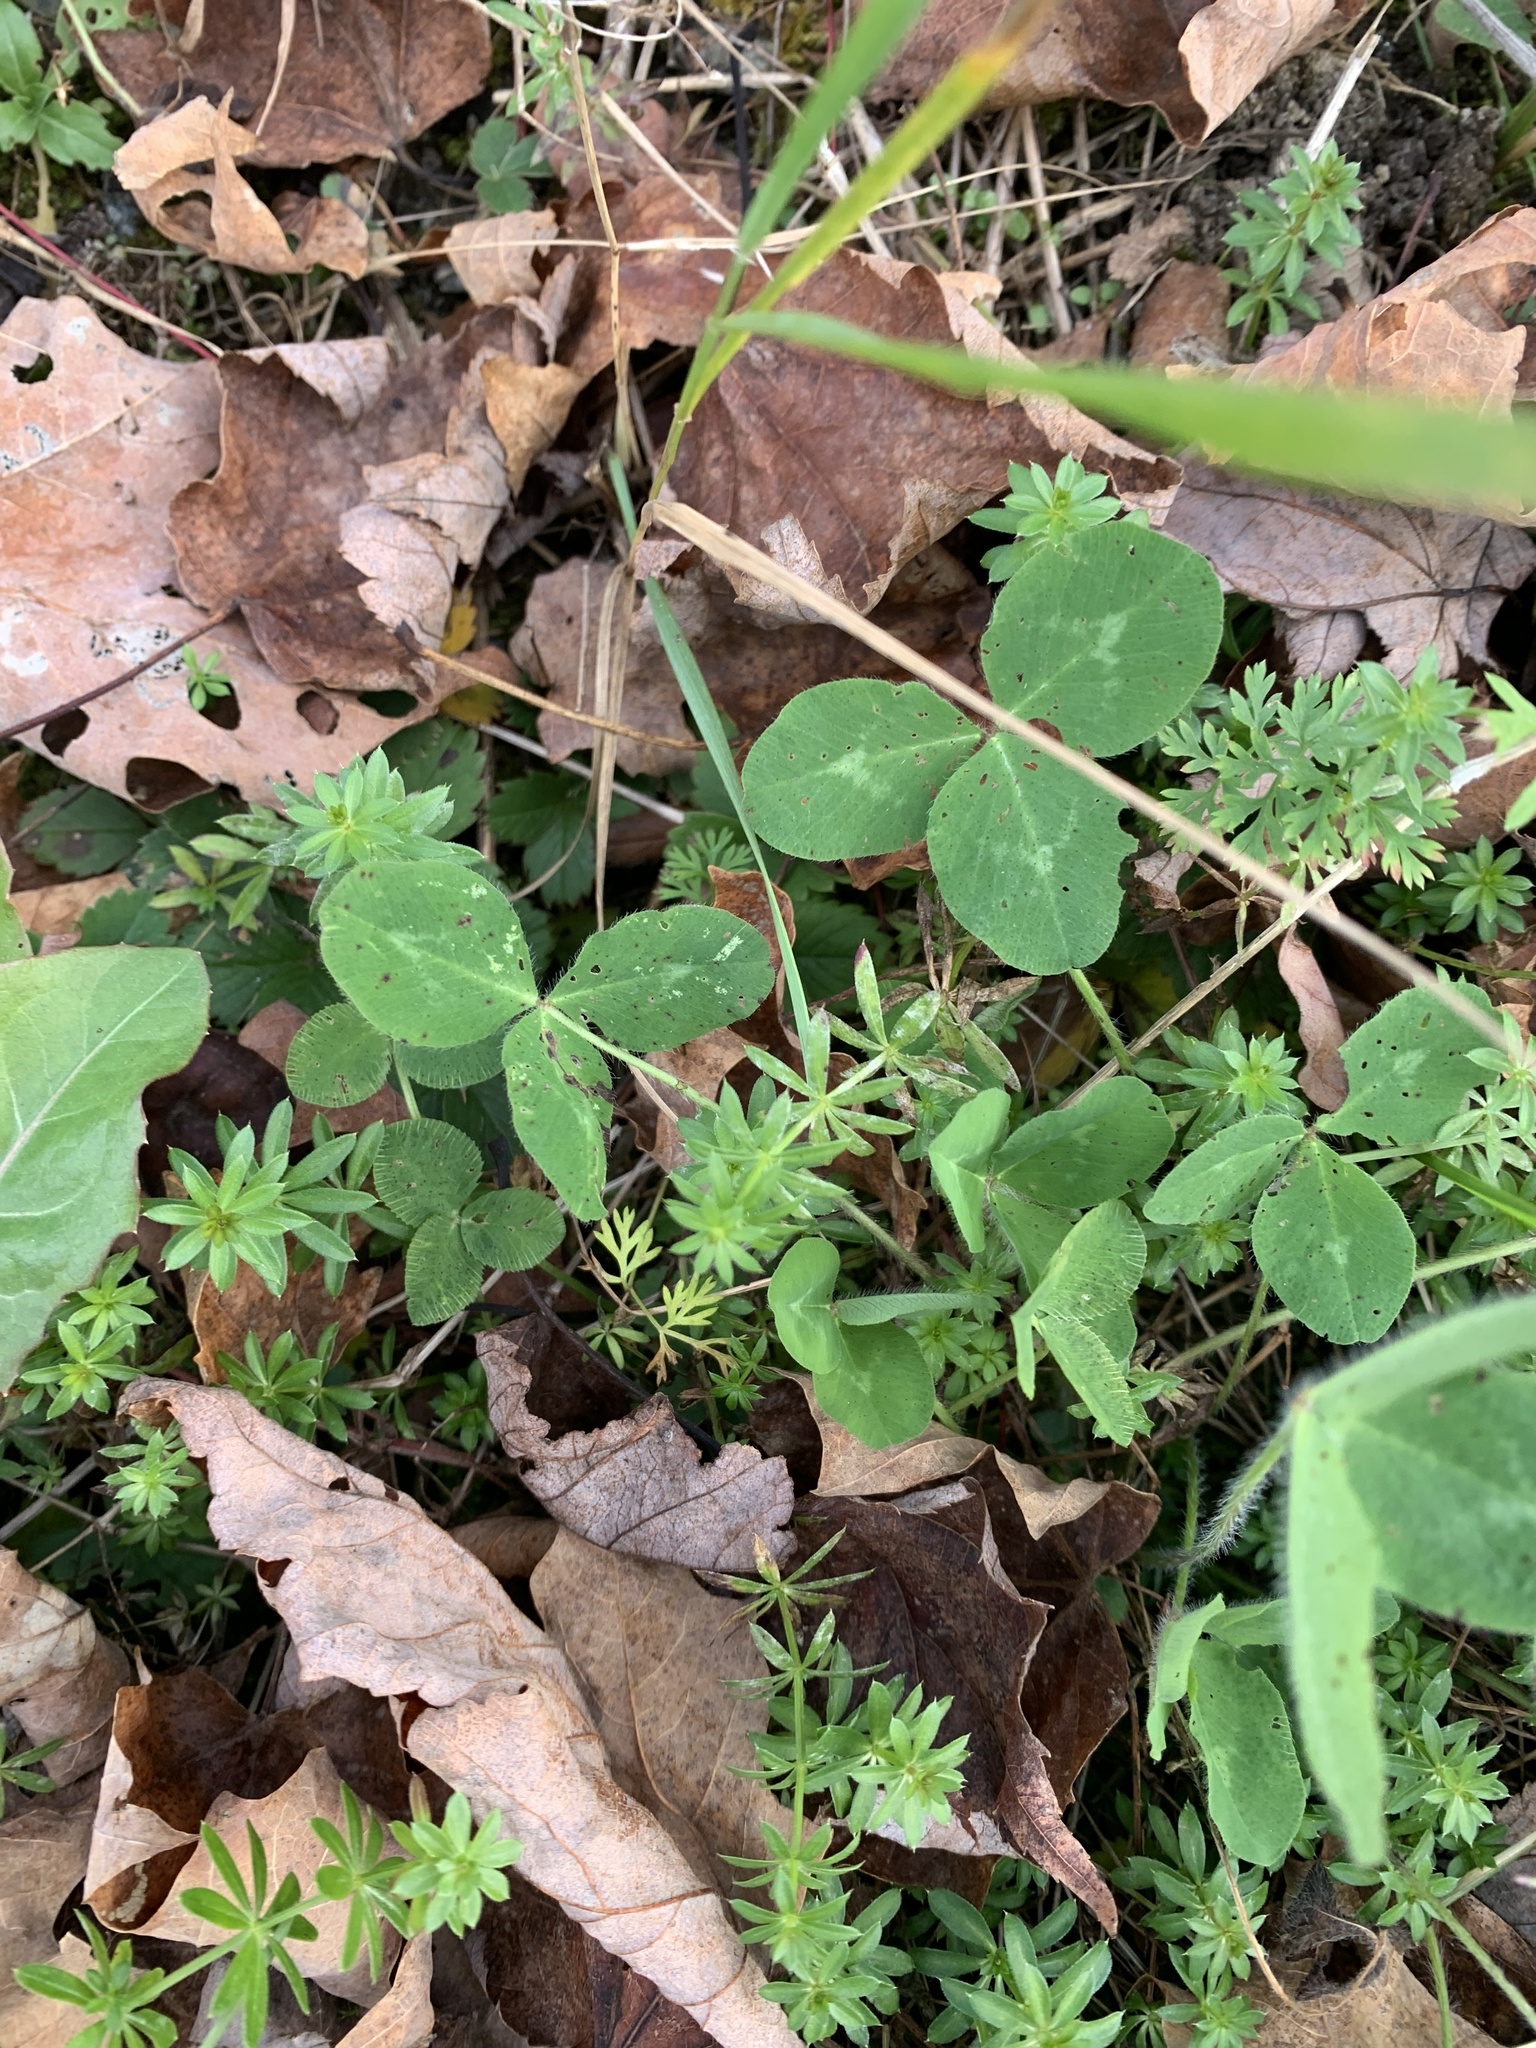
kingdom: Plantae
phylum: Tracheophyta
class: Magnoliopsida
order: Fabales
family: Fabaceae
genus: Trifolium
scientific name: Trifolium pratense
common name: Red clover
